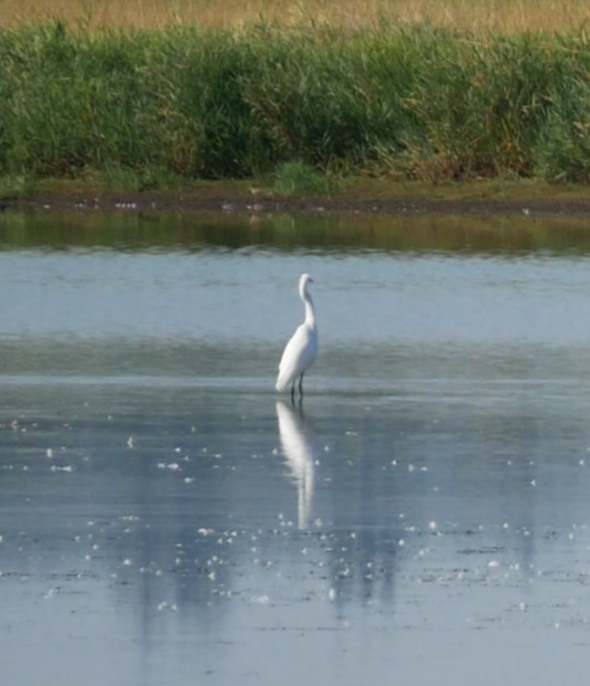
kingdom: Animalia
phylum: Chordata
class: Aves
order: Pelecaniformes
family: Ardeidae
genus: Ardea
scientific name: Ardea alba
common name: Great egret
